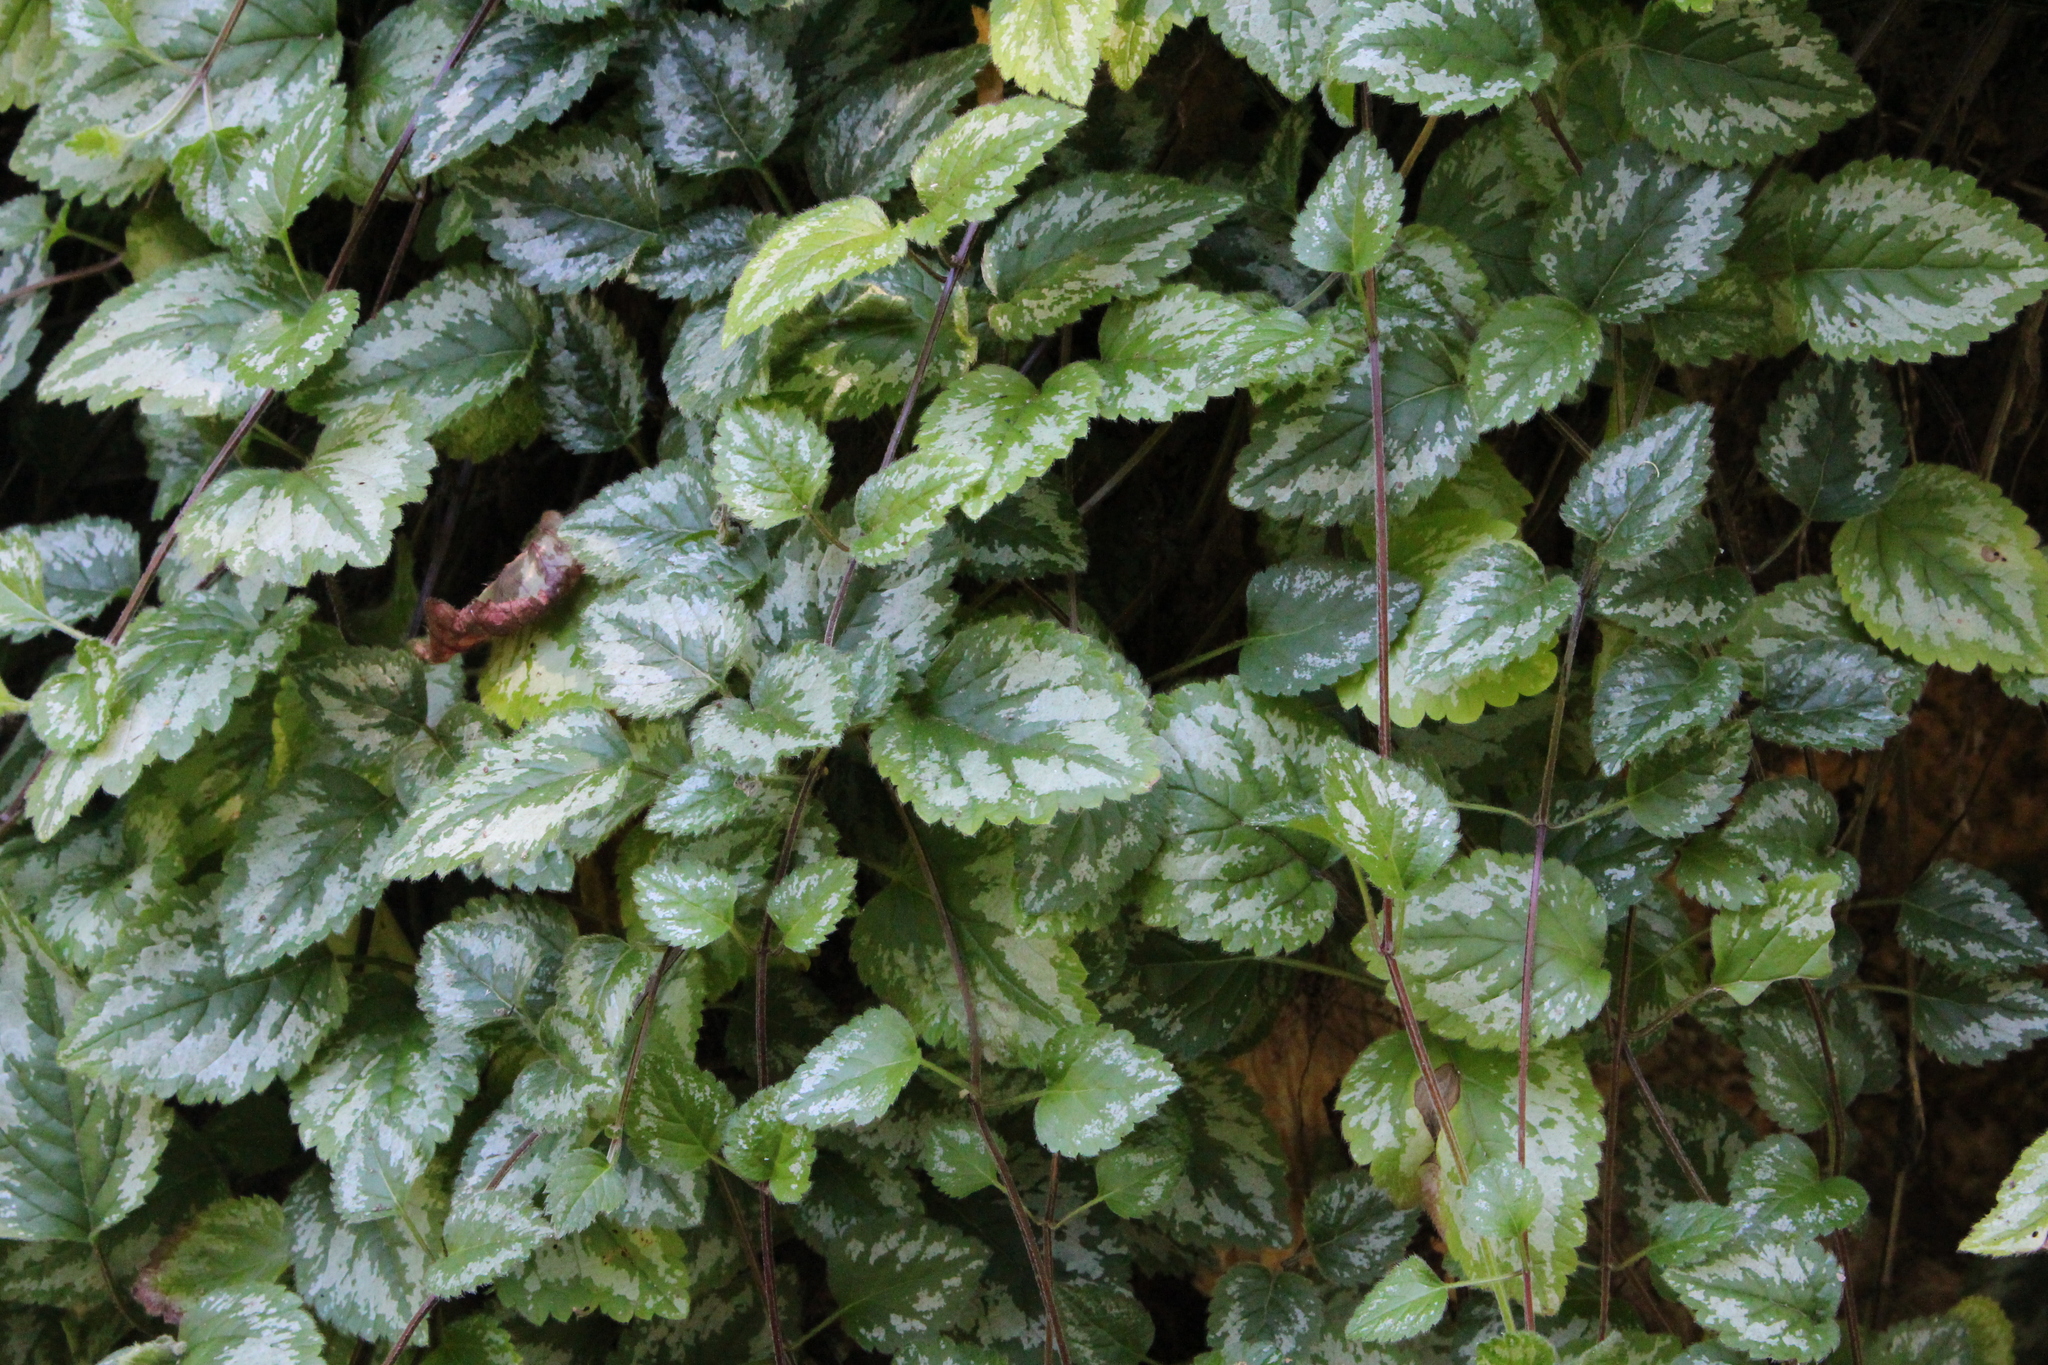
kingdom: Plantae
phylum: Tracheophyta
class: Magnoliopsida
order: Lamiales
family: Lamiaceae
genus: Lamium
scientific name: Lamium galeobdolon
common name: Yellow archangel
